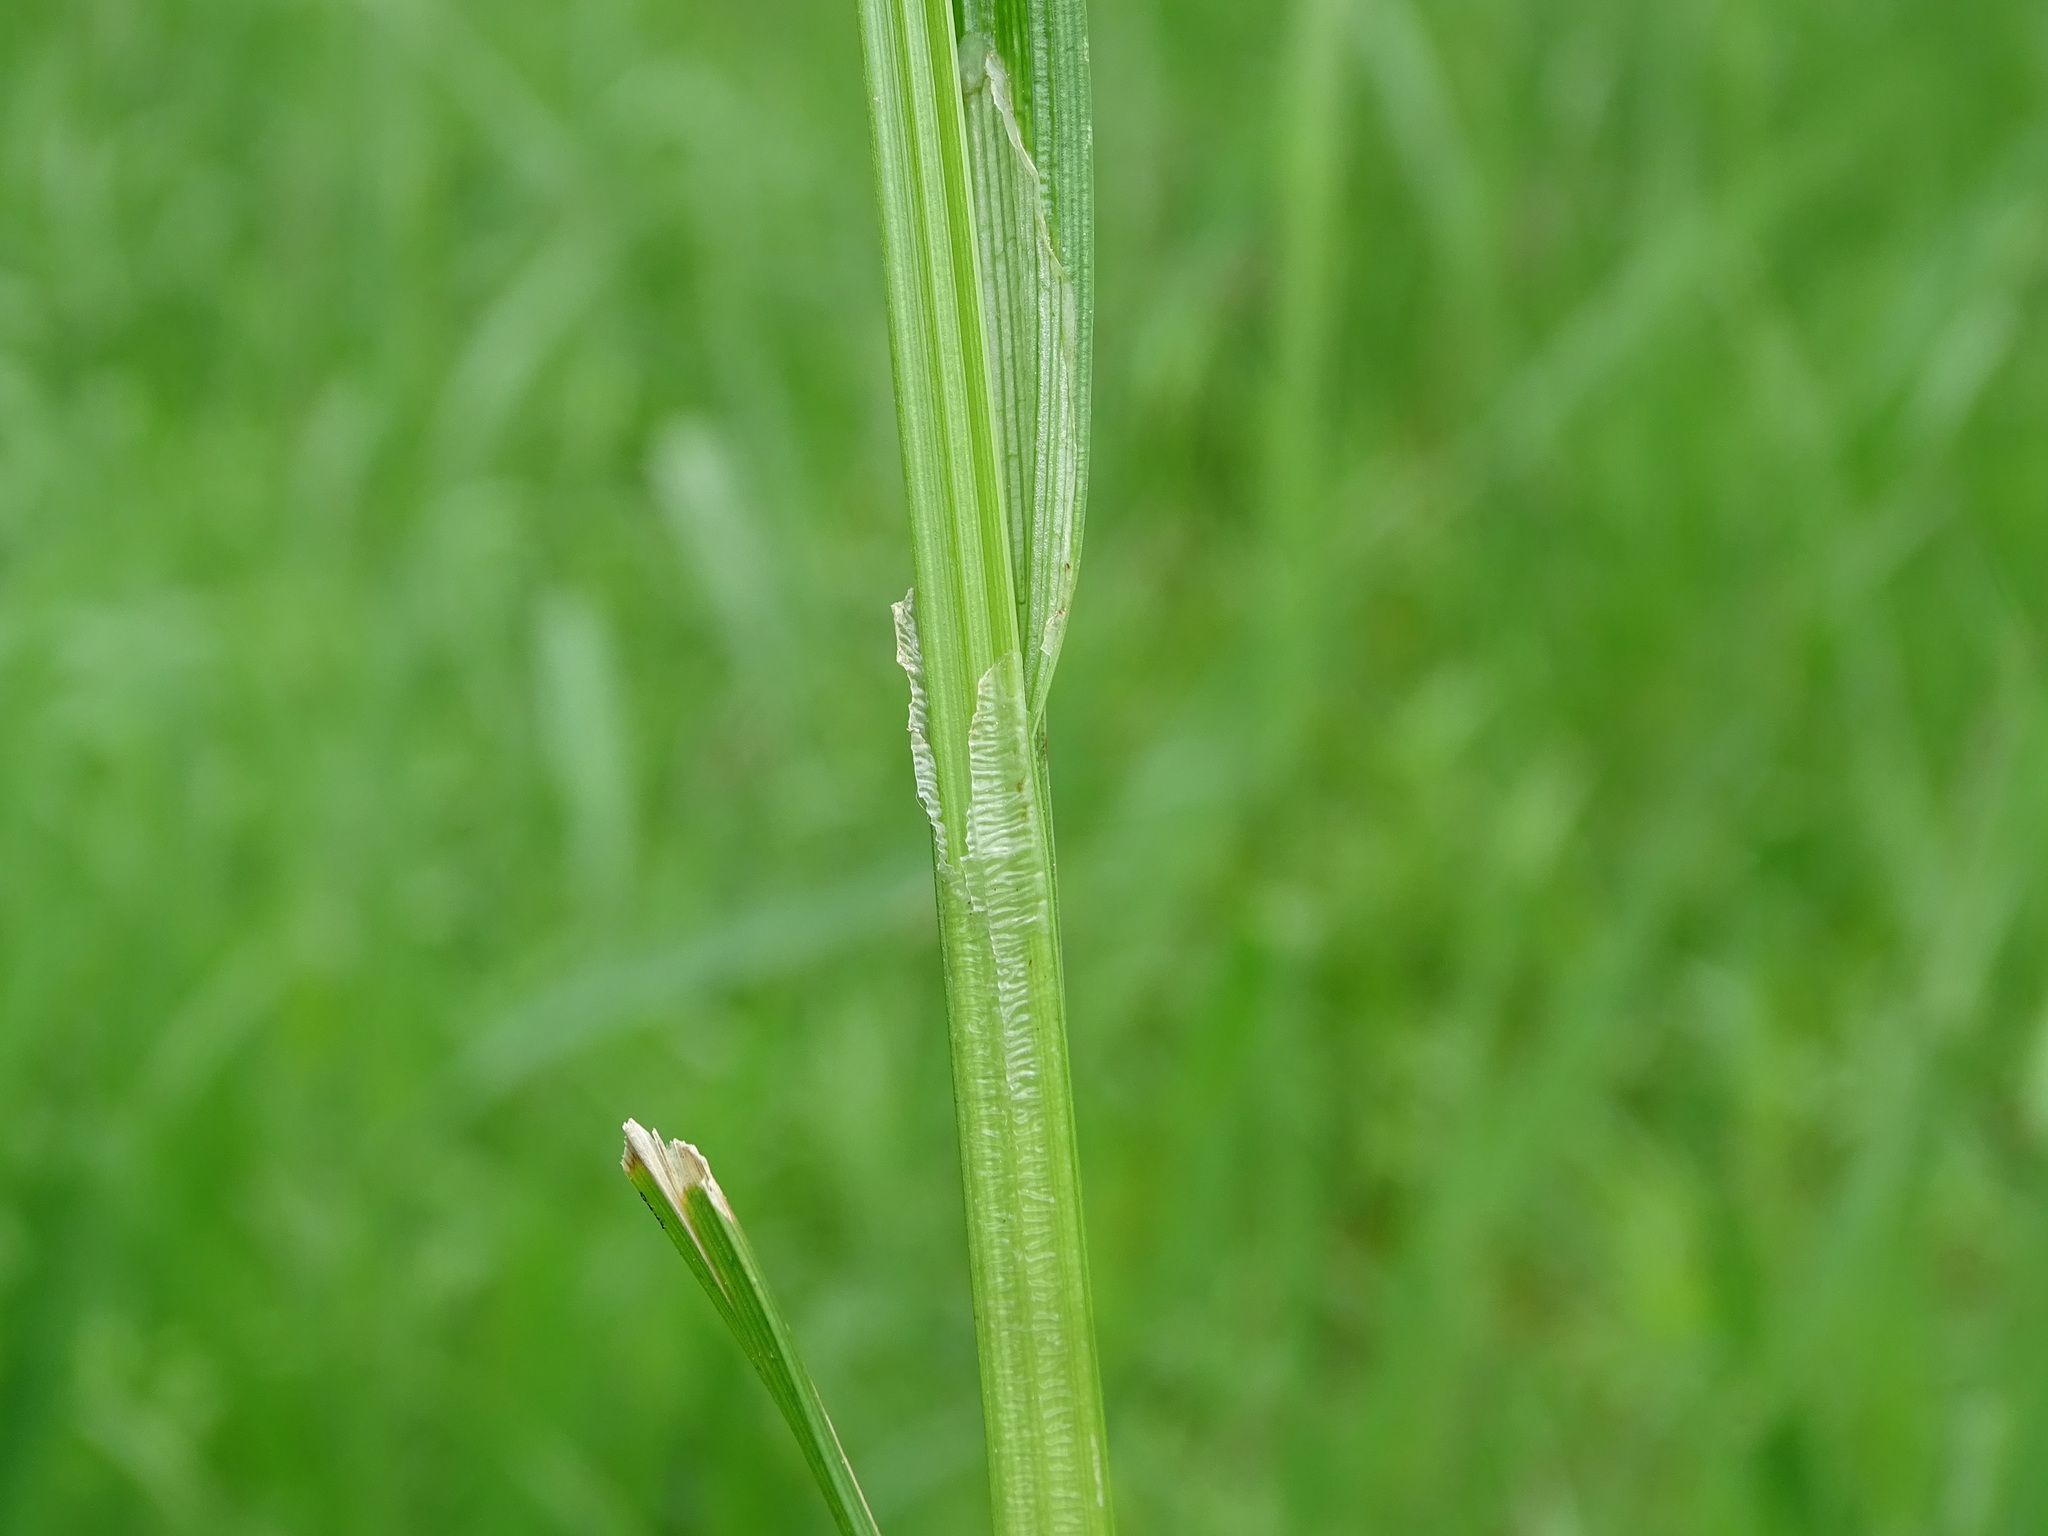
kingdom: Plantae
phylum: Tracheophyta
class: Liliopsida
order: Poales
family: Cyperaceae
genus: Carex
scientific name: Carex stipata
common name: Awl-fruited sedge
